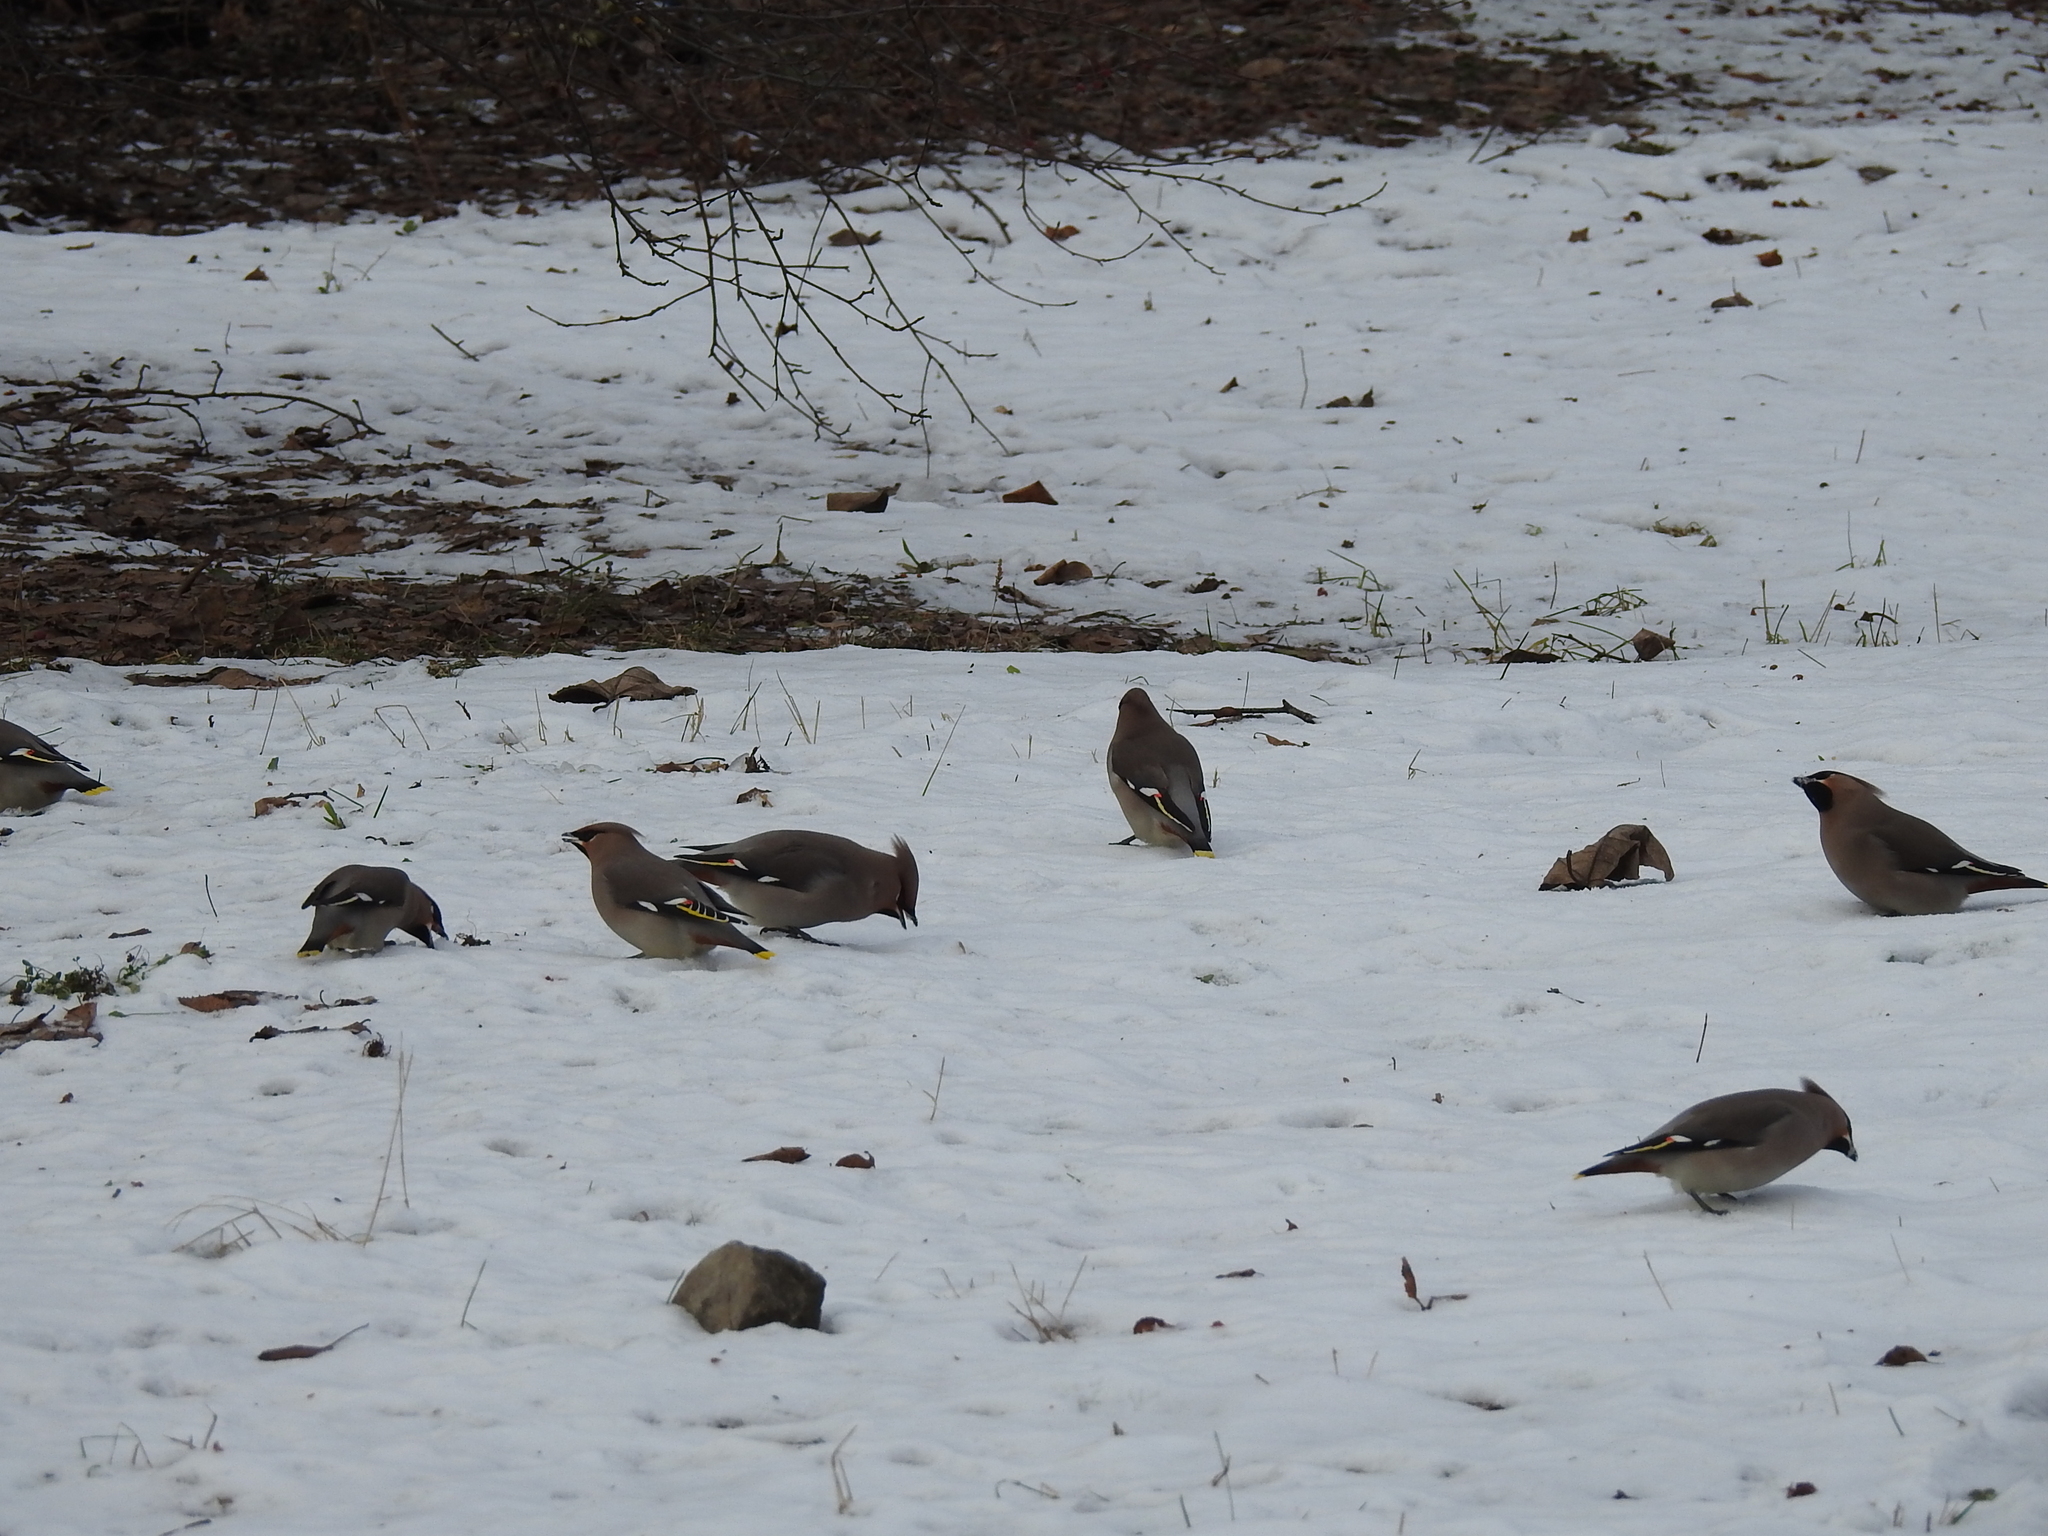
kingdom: Animalia
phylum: Chordata
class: Aves
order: Passeriformes
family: Bombycillidae
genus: Bombycilla
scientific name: Bombycilla garrulus
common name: Bohemian waxwing
